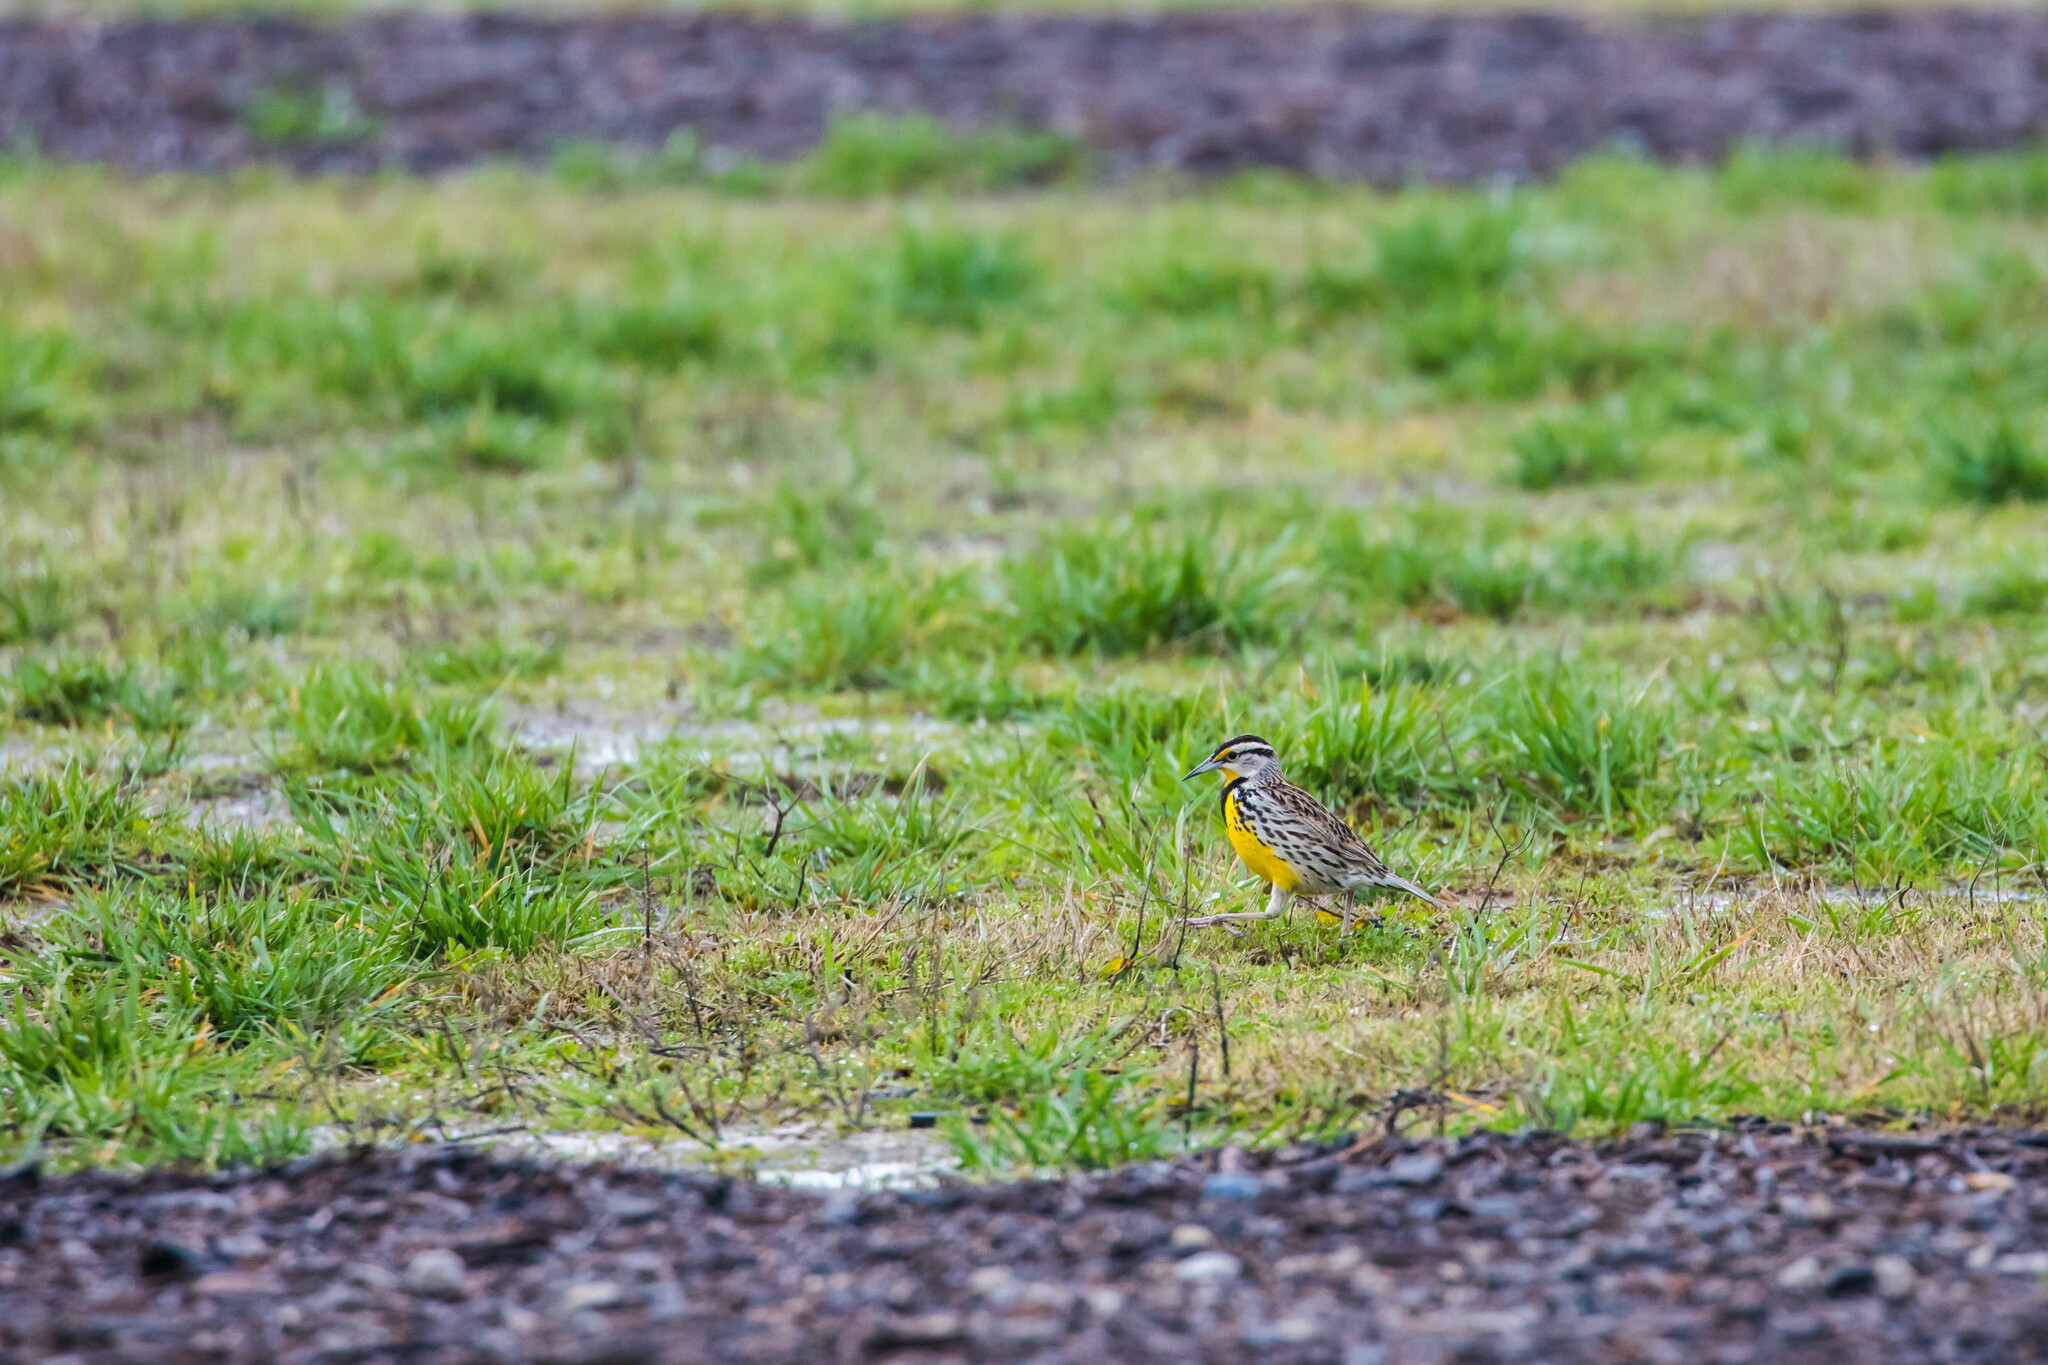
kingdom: Animalia
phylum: Chordata
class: Aves
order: Passeriformes
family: Icteridae
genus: Sturnella
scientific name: Sturnella magna
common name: Eastern meadowlark
